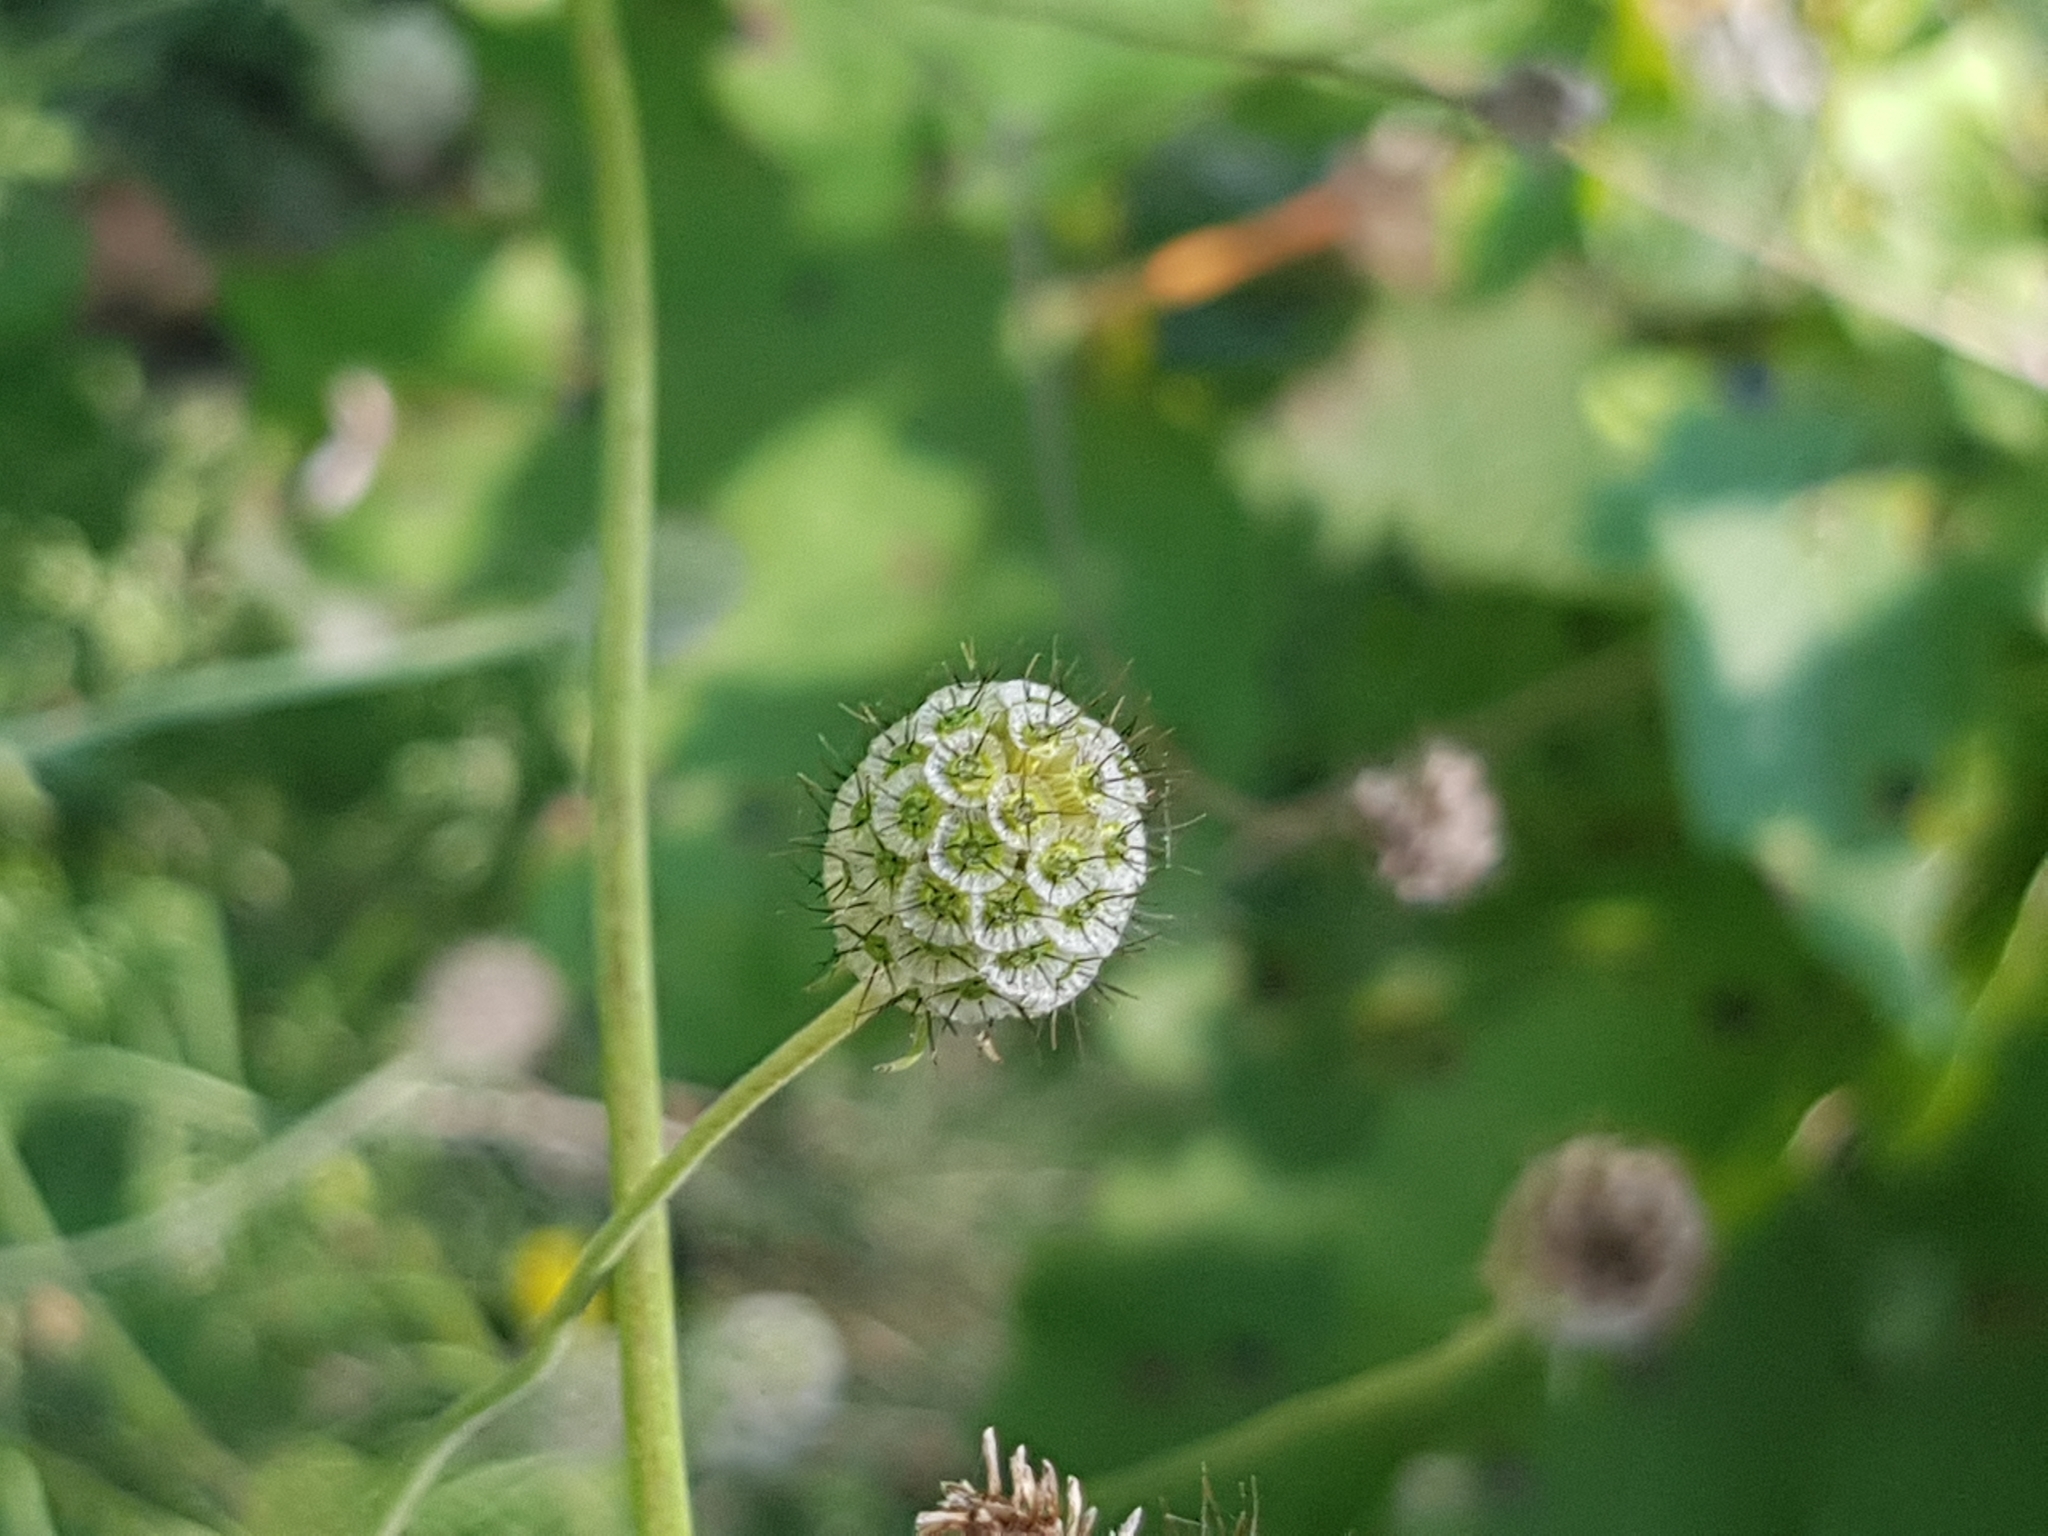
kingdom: Plantae
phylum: Tracheophyta
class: Magnoliopsida
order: Dipsacales
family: Caprifoliaceae
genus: Scabiosa
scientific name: Scabiosa ochroleuca
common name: Cream pincushions
